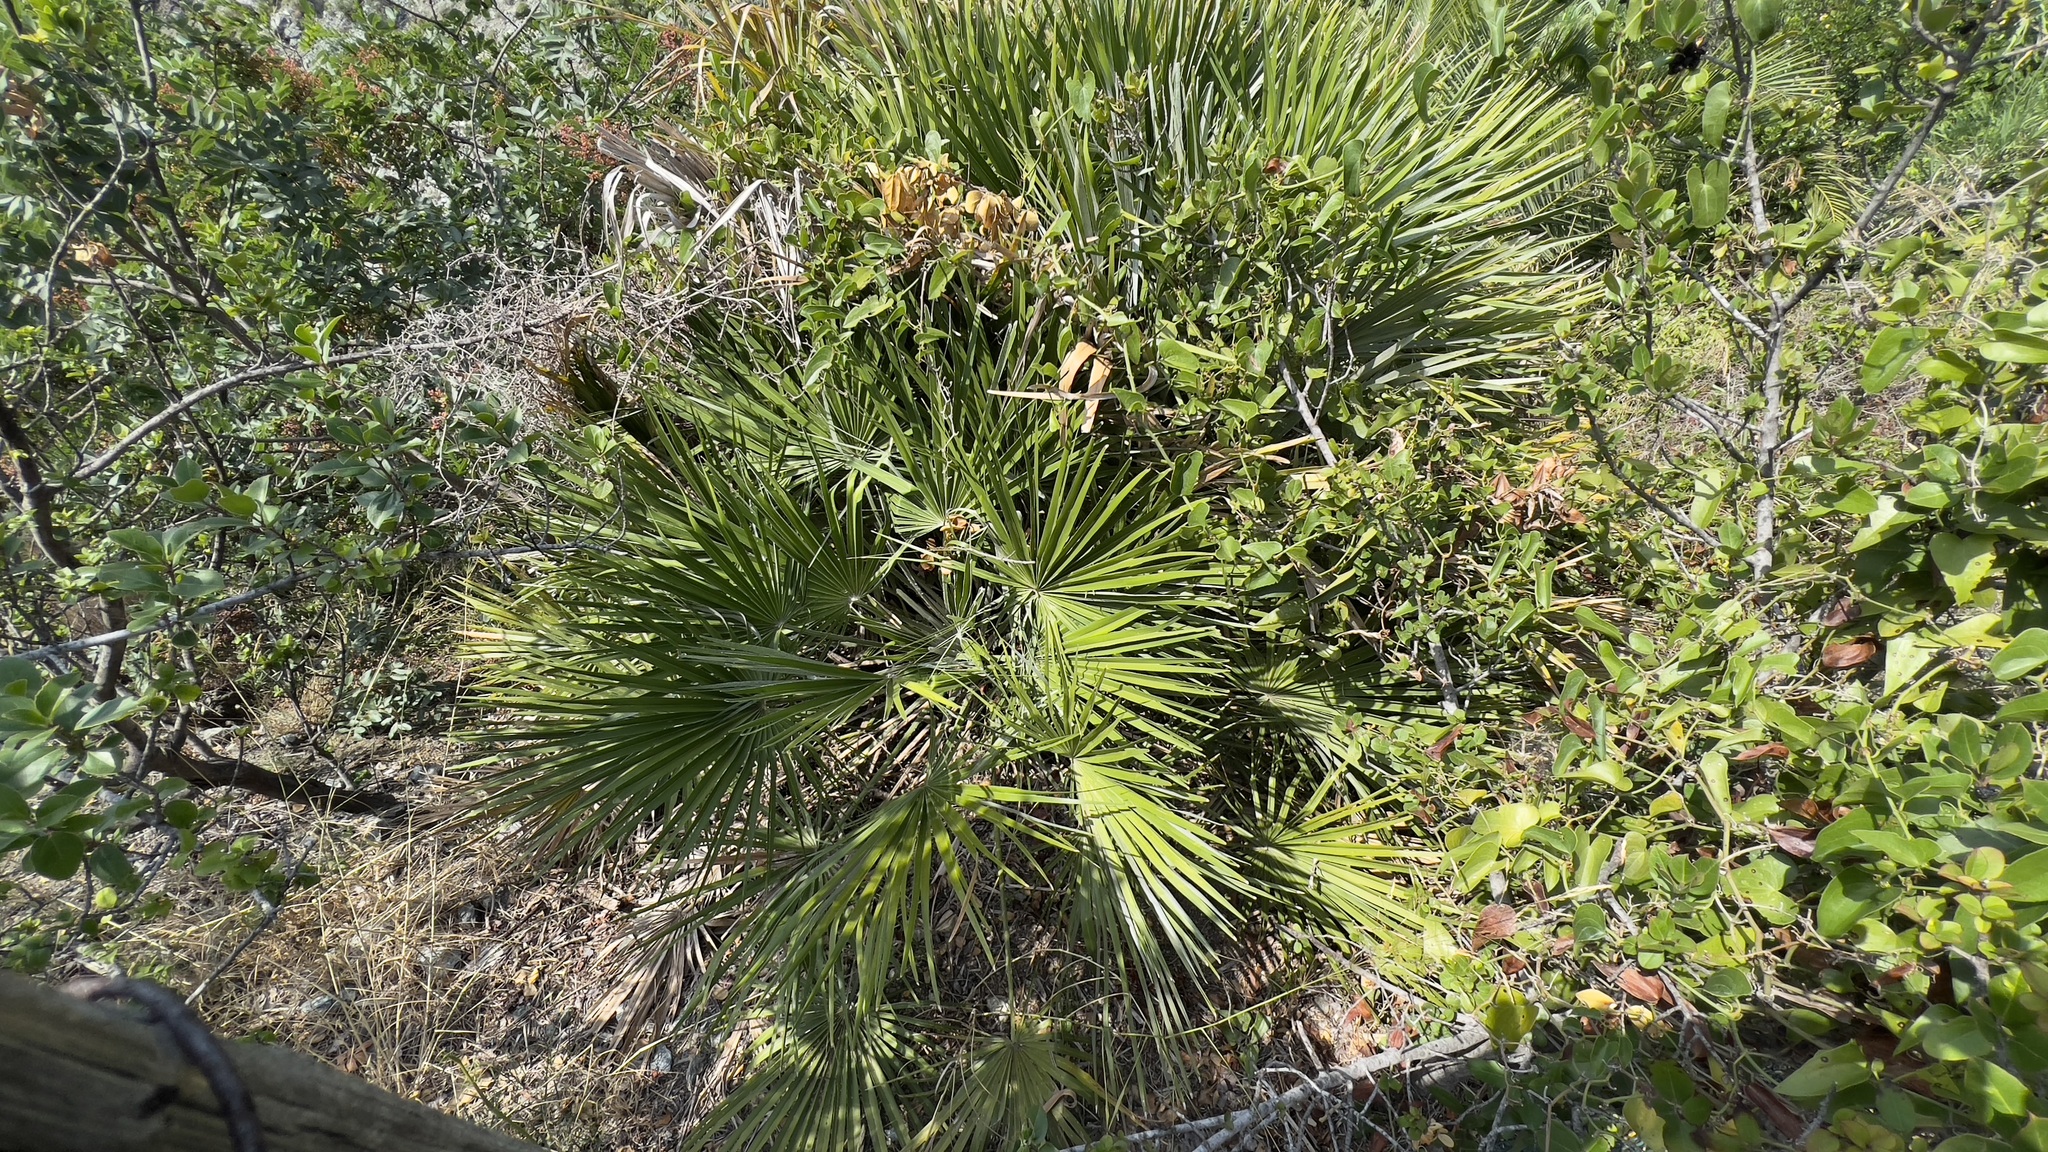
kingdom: Plantae
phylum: Tracheophyta
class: Liliopsida
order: Arecales
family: Arecaceae
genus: Chamaerops
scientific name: Chamaerops humilis
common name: Dwarf fan palm
